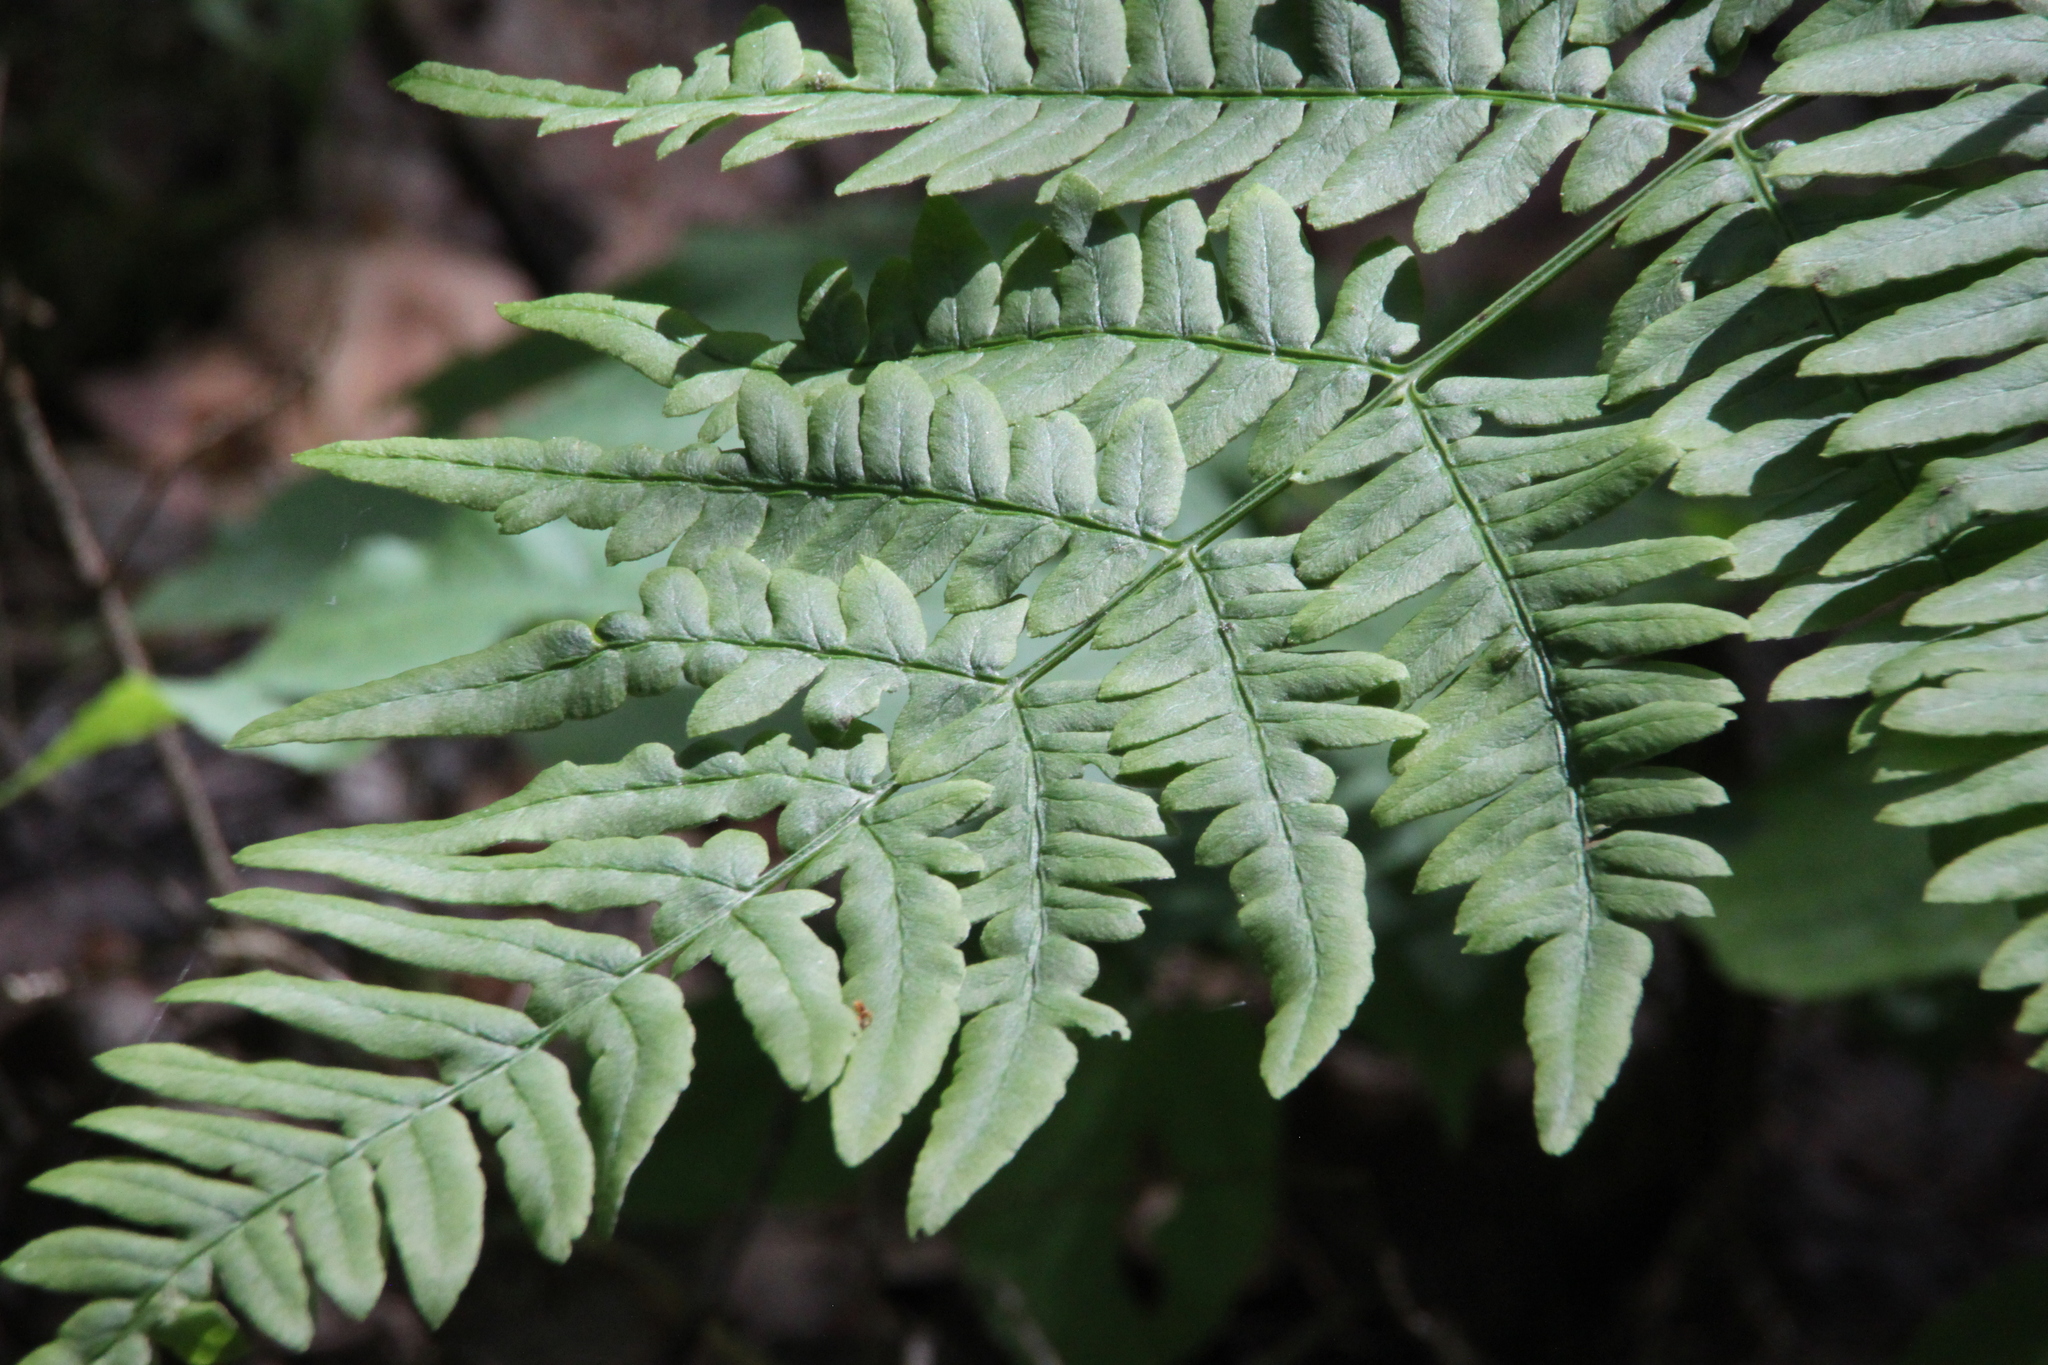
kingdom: Plantae
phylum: Tracheophyta
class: Polypodiopsida
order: Polypodiales
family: Dennstaedtiaceae
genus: Pteridium
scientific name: Pteridium aquilinum
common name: Bracken
